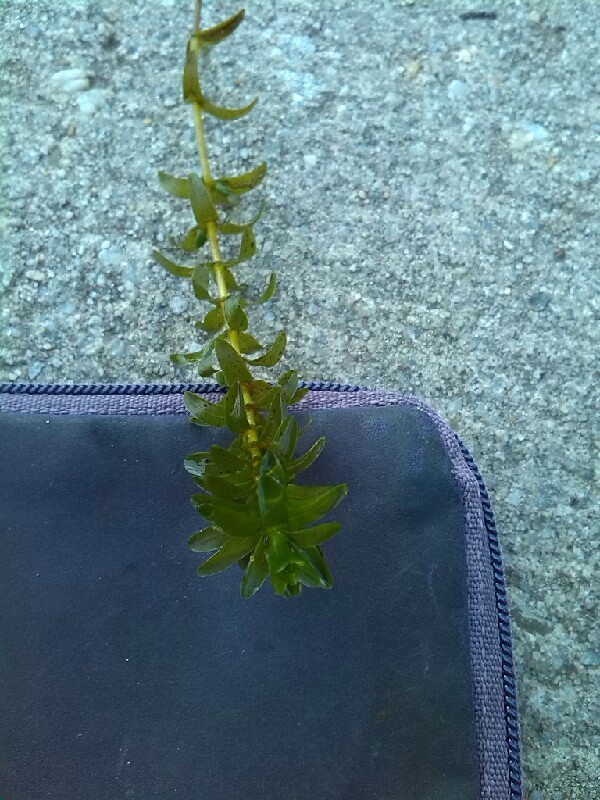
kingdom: Plantae
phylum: Tracheophyta
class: Liliopsida
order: Alismatales
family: Hydrocharitaceae
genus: Elodea
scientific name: Elodea canadensis
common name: Canadian waterweed
